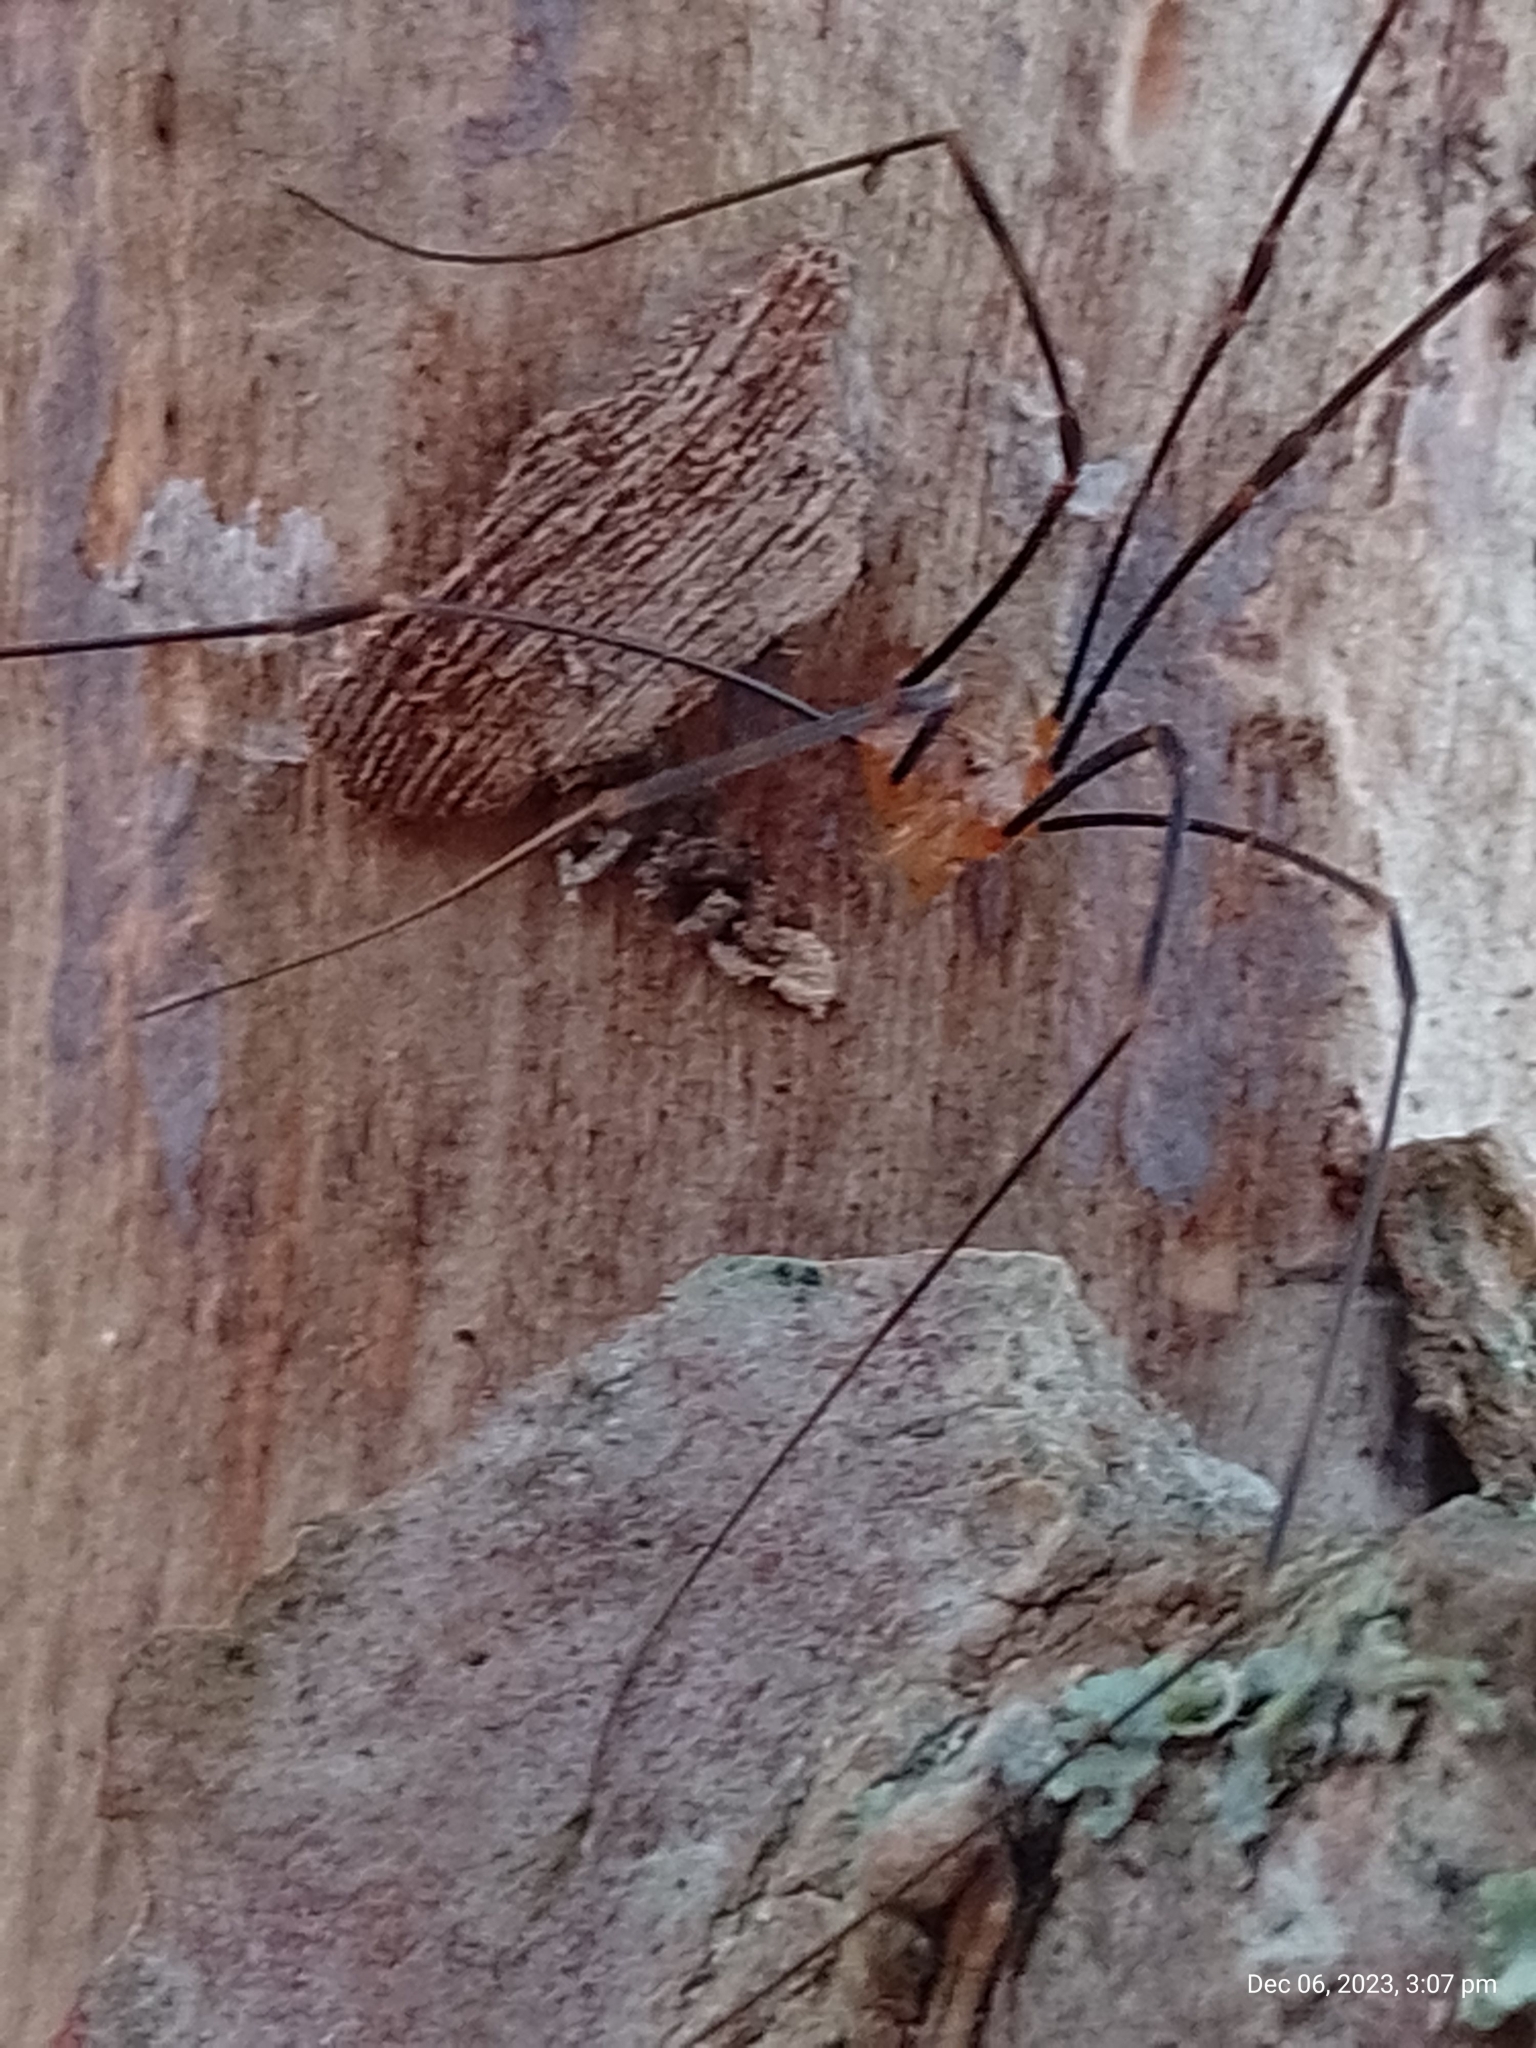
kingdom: Animalia
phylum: Arthropoda
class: Arachnida
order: Opiliones
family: Phalangiidae
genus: Opilio
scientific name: Opilio canestrinii
